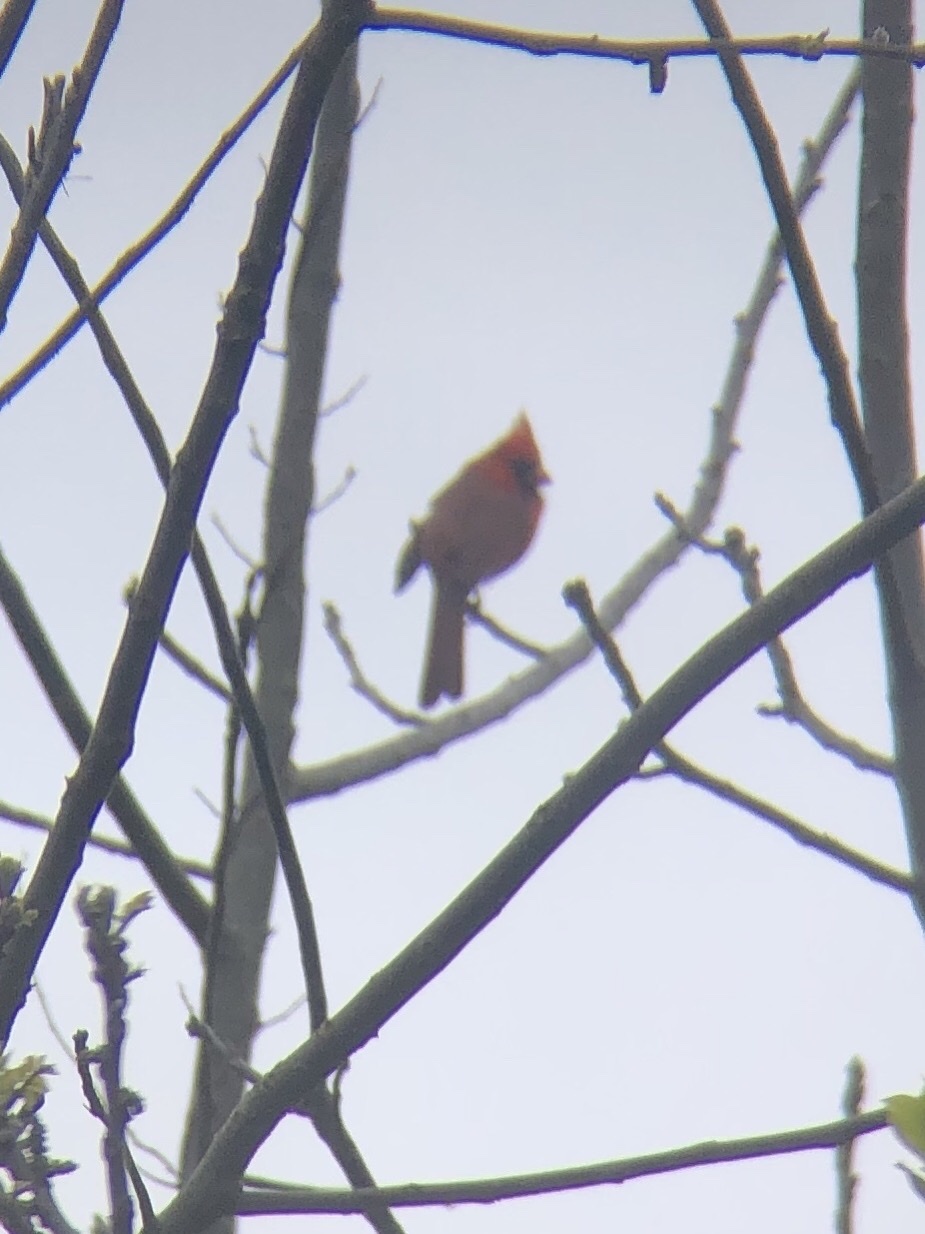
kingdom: Animalia
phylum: Chordata
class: Aves
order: Passeriformes
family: Cardinalidae
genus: Cardinalis
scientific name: Cardinalis cardinalis
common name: Northern cardinal
